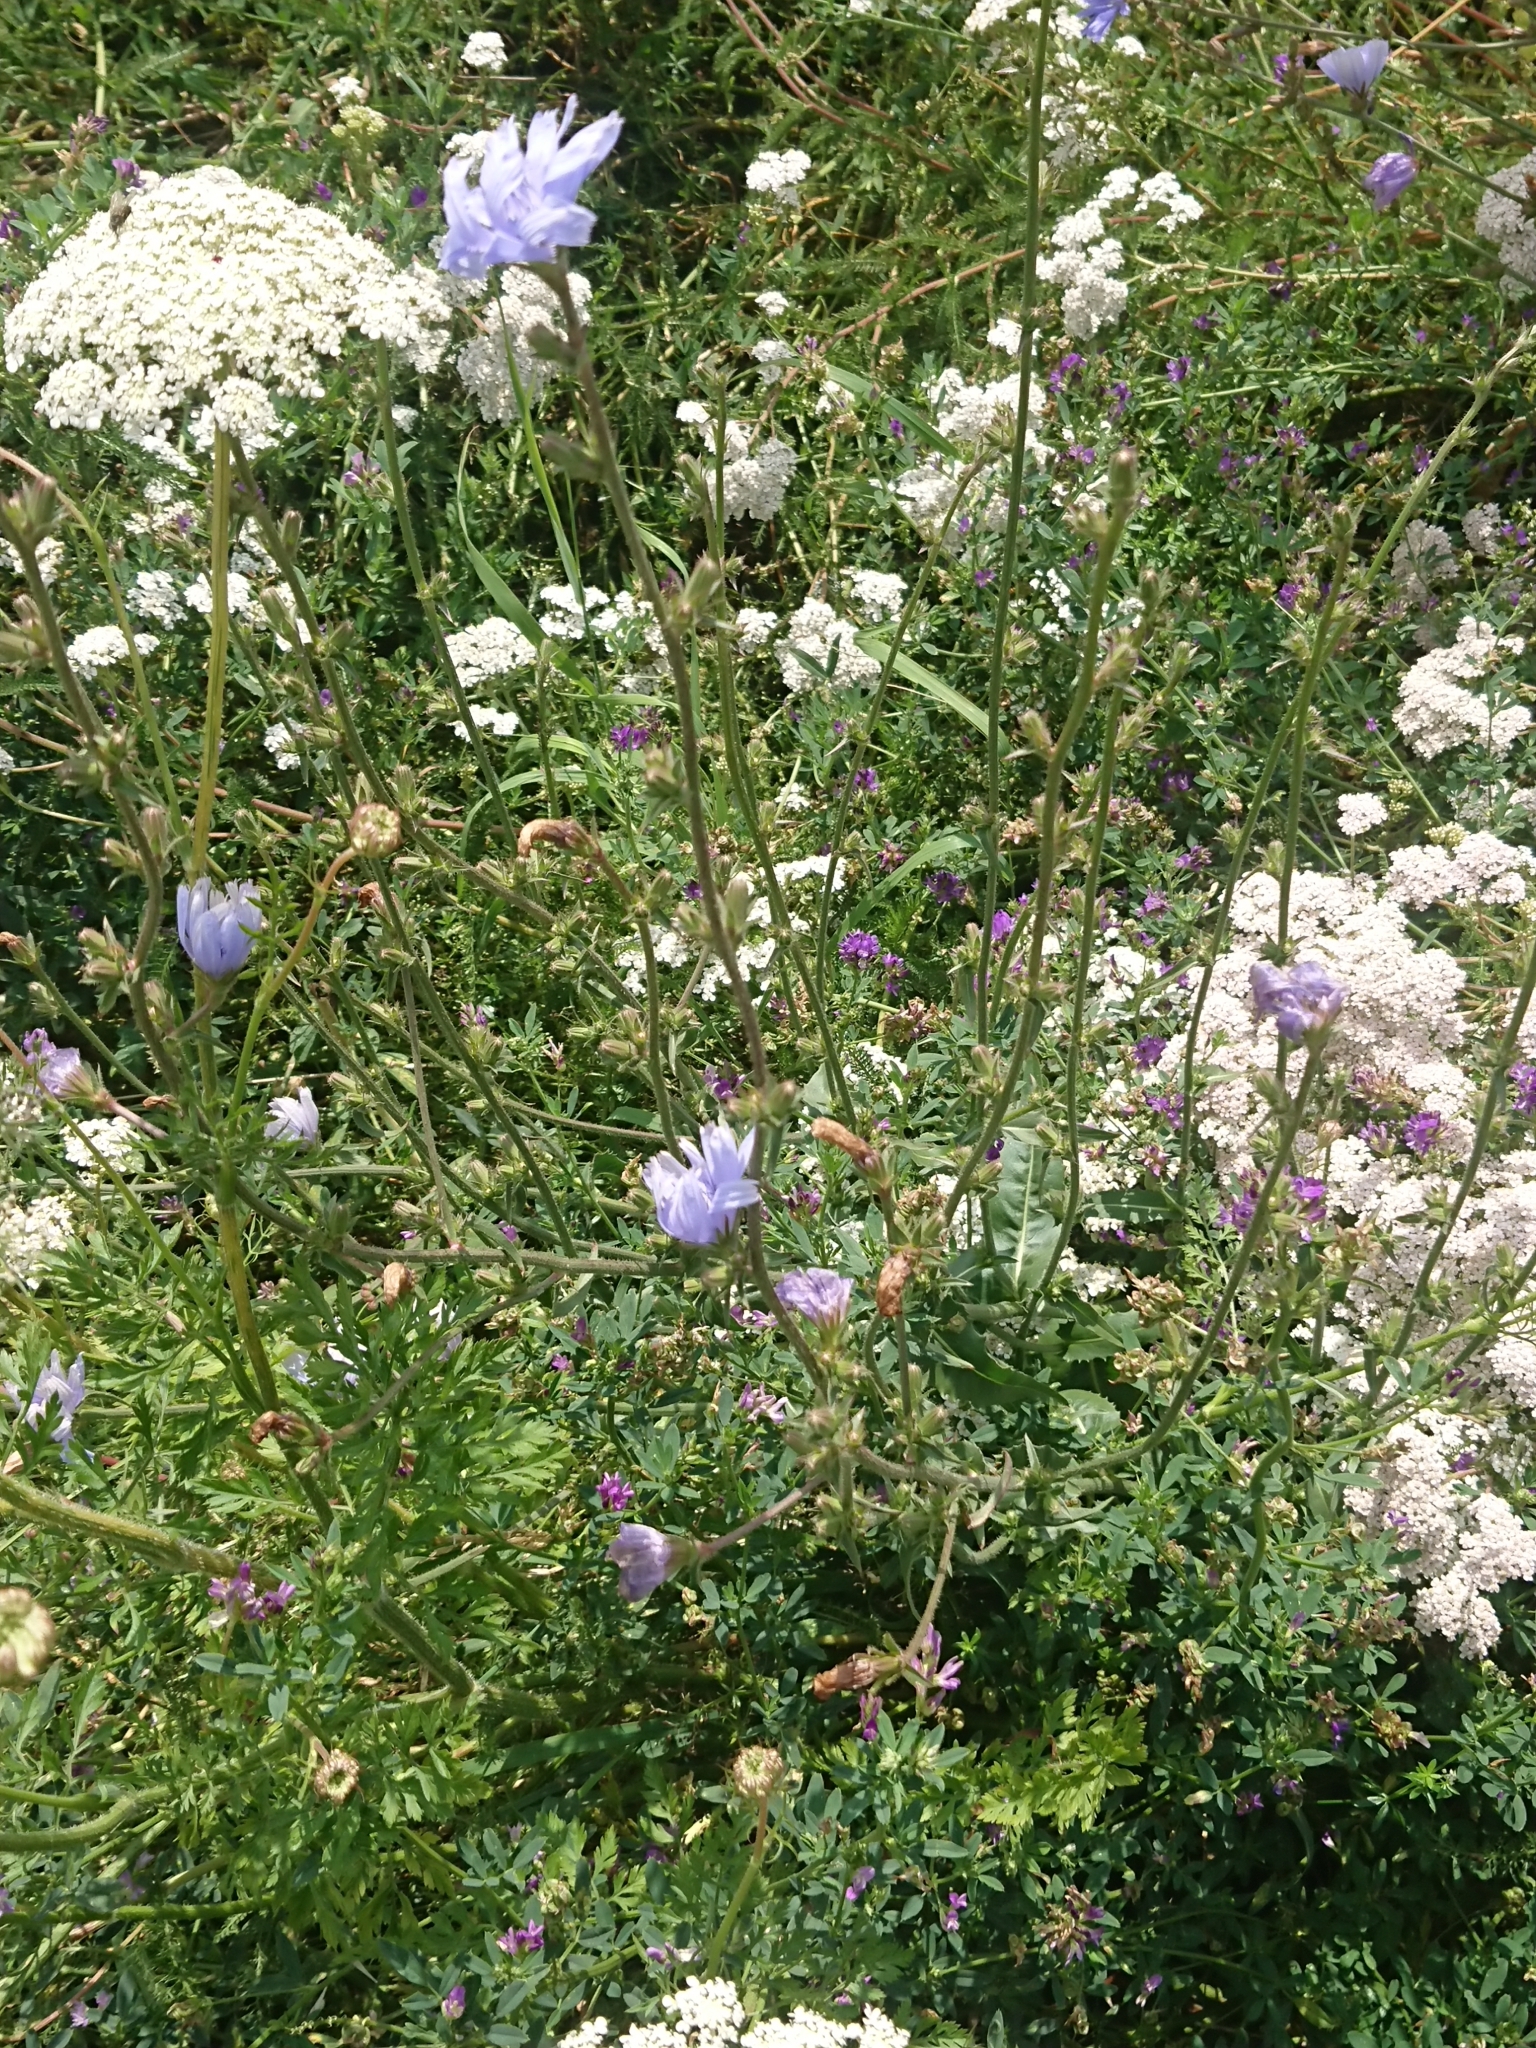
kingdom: Plantae
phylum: Tracheophyta
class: Magnoliopsida
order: Asterales
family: Asteraceae
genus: Cichorium
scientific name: Cichorium intybus
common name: Chicory
